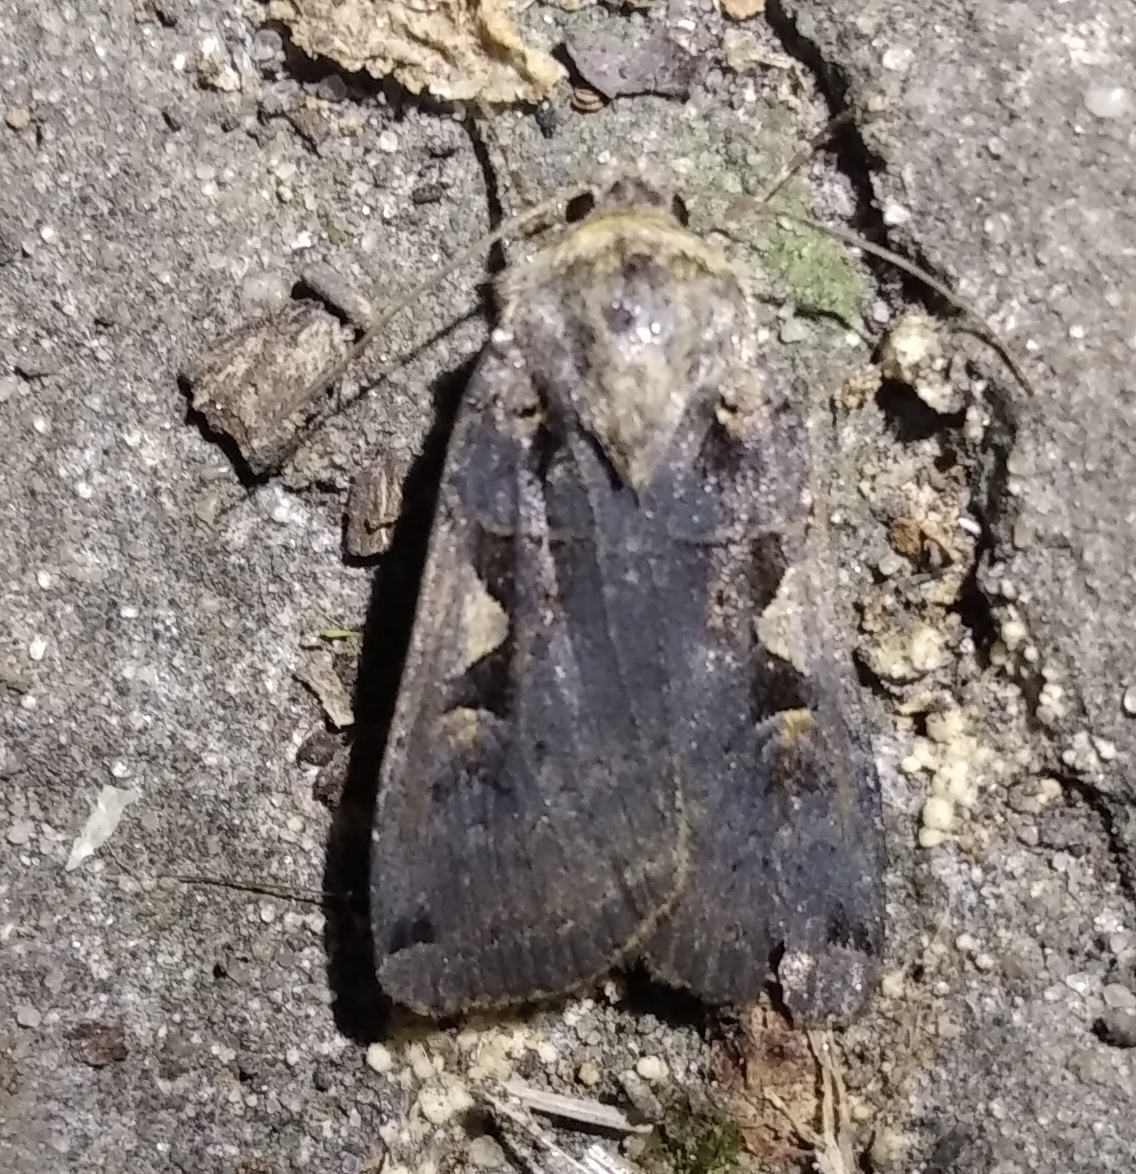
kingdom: Animalia
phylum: Arthropoda
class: Insecta
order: Lepidoptera
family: Noctuidae
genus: Xestia
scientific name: Xestia c-nigrum
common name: Setaceous hebrew character
